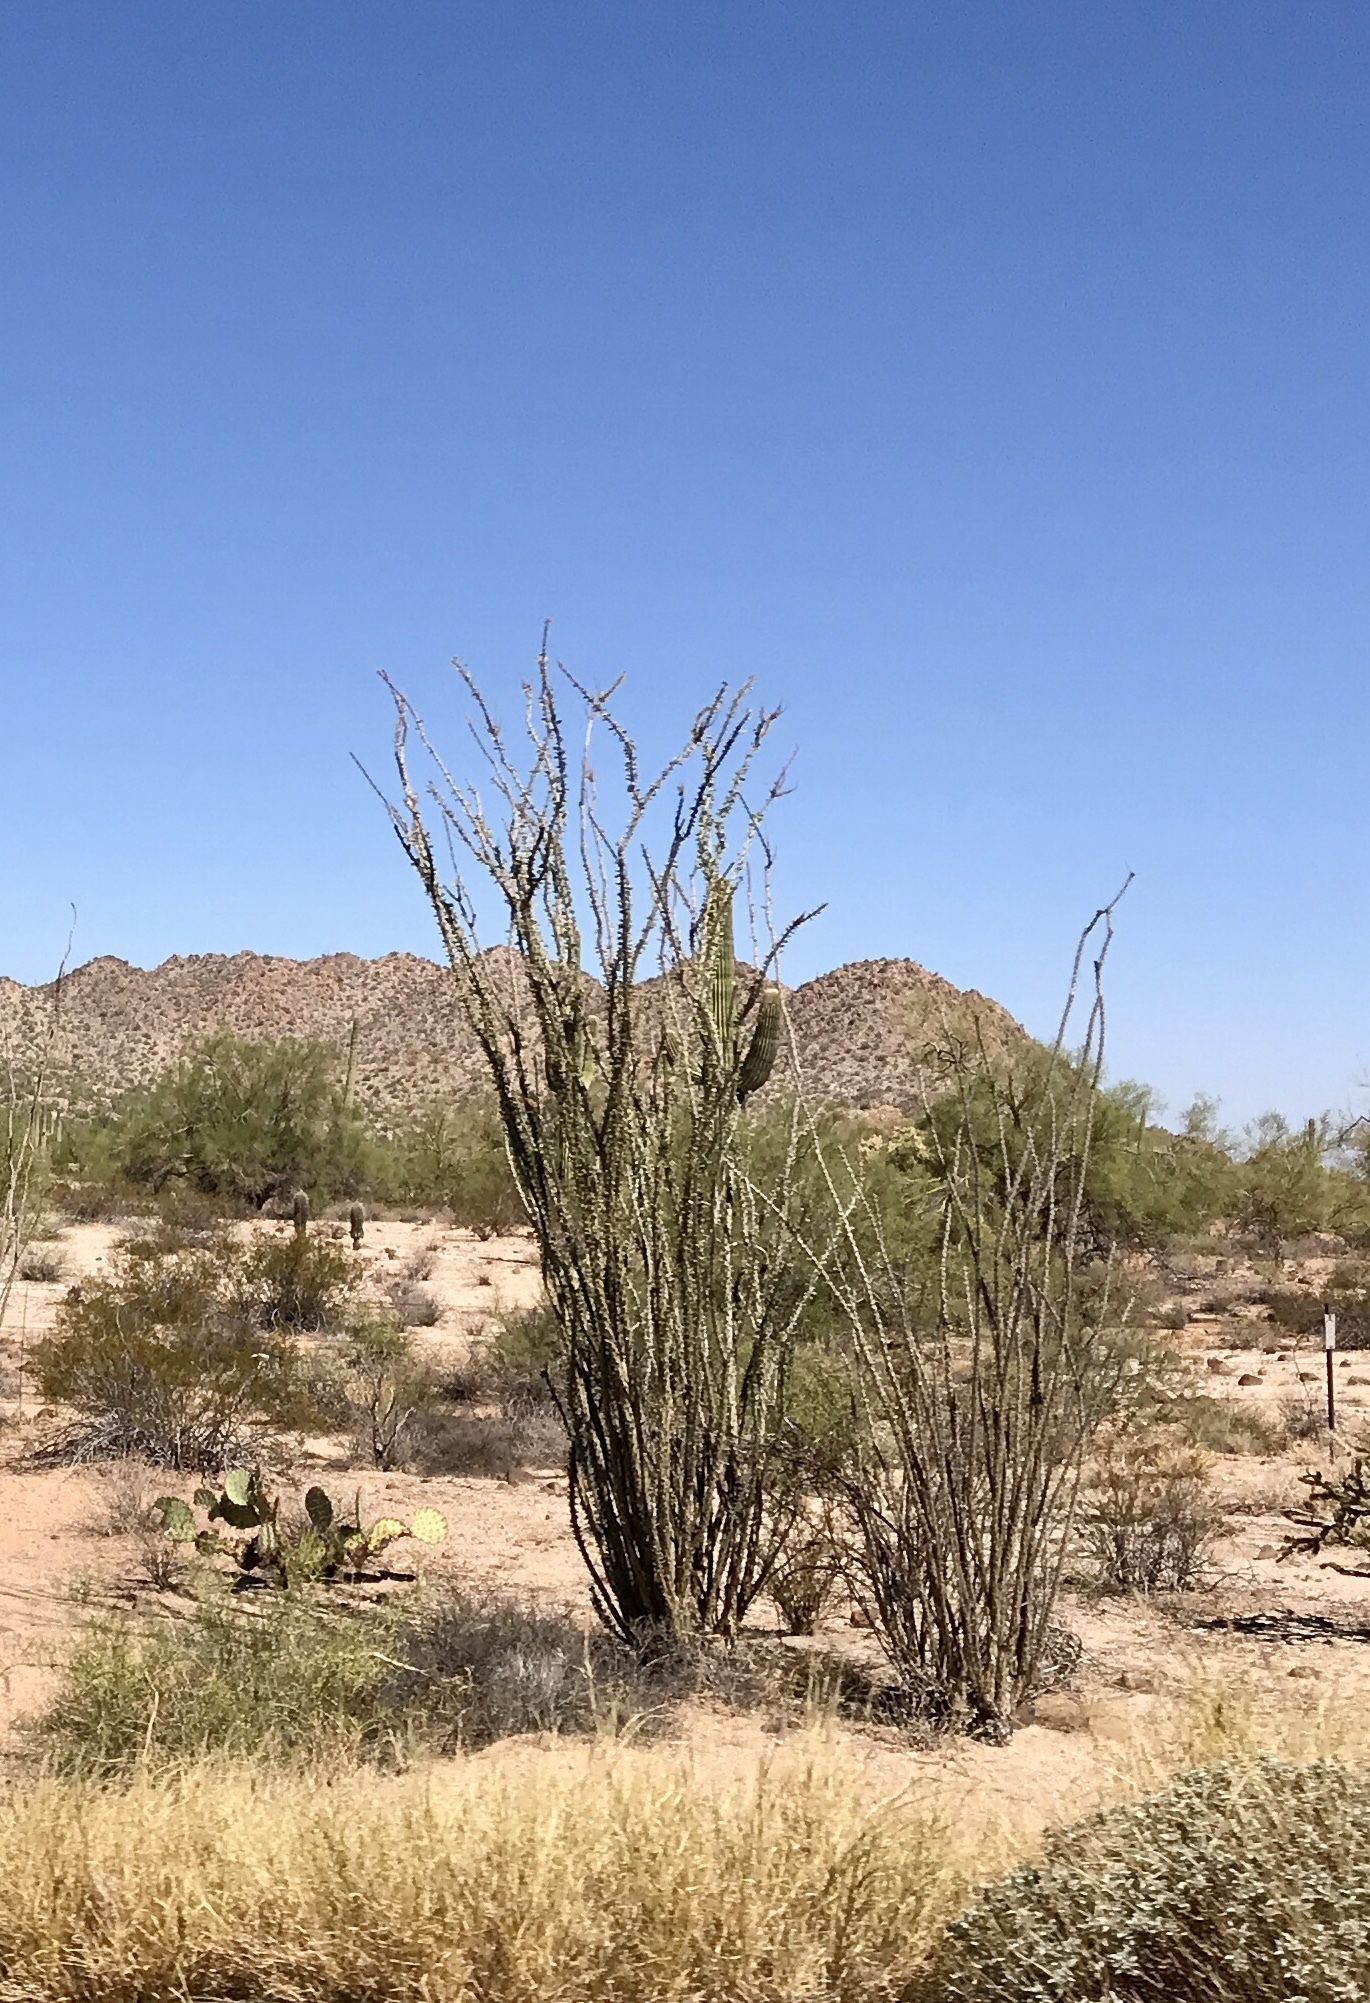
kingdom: Plantae
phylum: Tracheophyta
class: Magnoliopsida
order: Ericales
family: Fouquieriaceae
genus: Fouquieria
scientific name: Fouquieria splendens
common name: Vine-cactus
